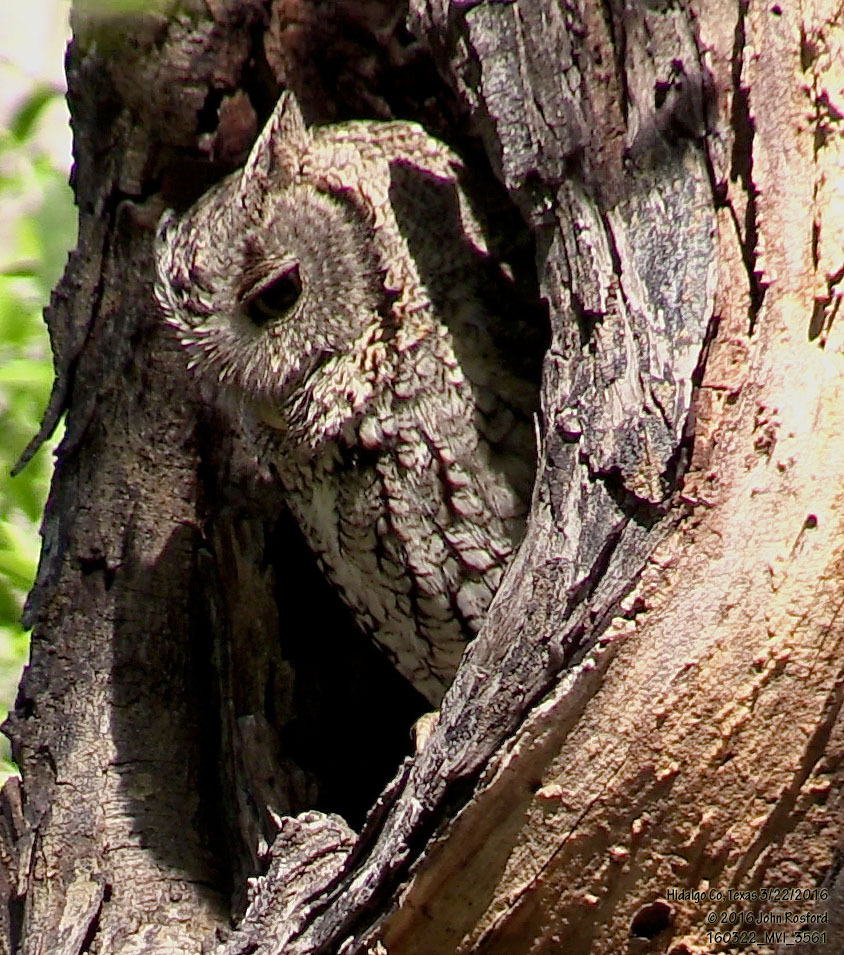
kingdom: Animalia
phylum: Chordata
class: Aves
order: Strigiformes
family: Strigidae
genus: Megascops
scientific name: Megascops asio
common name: Eastern screech-owl
